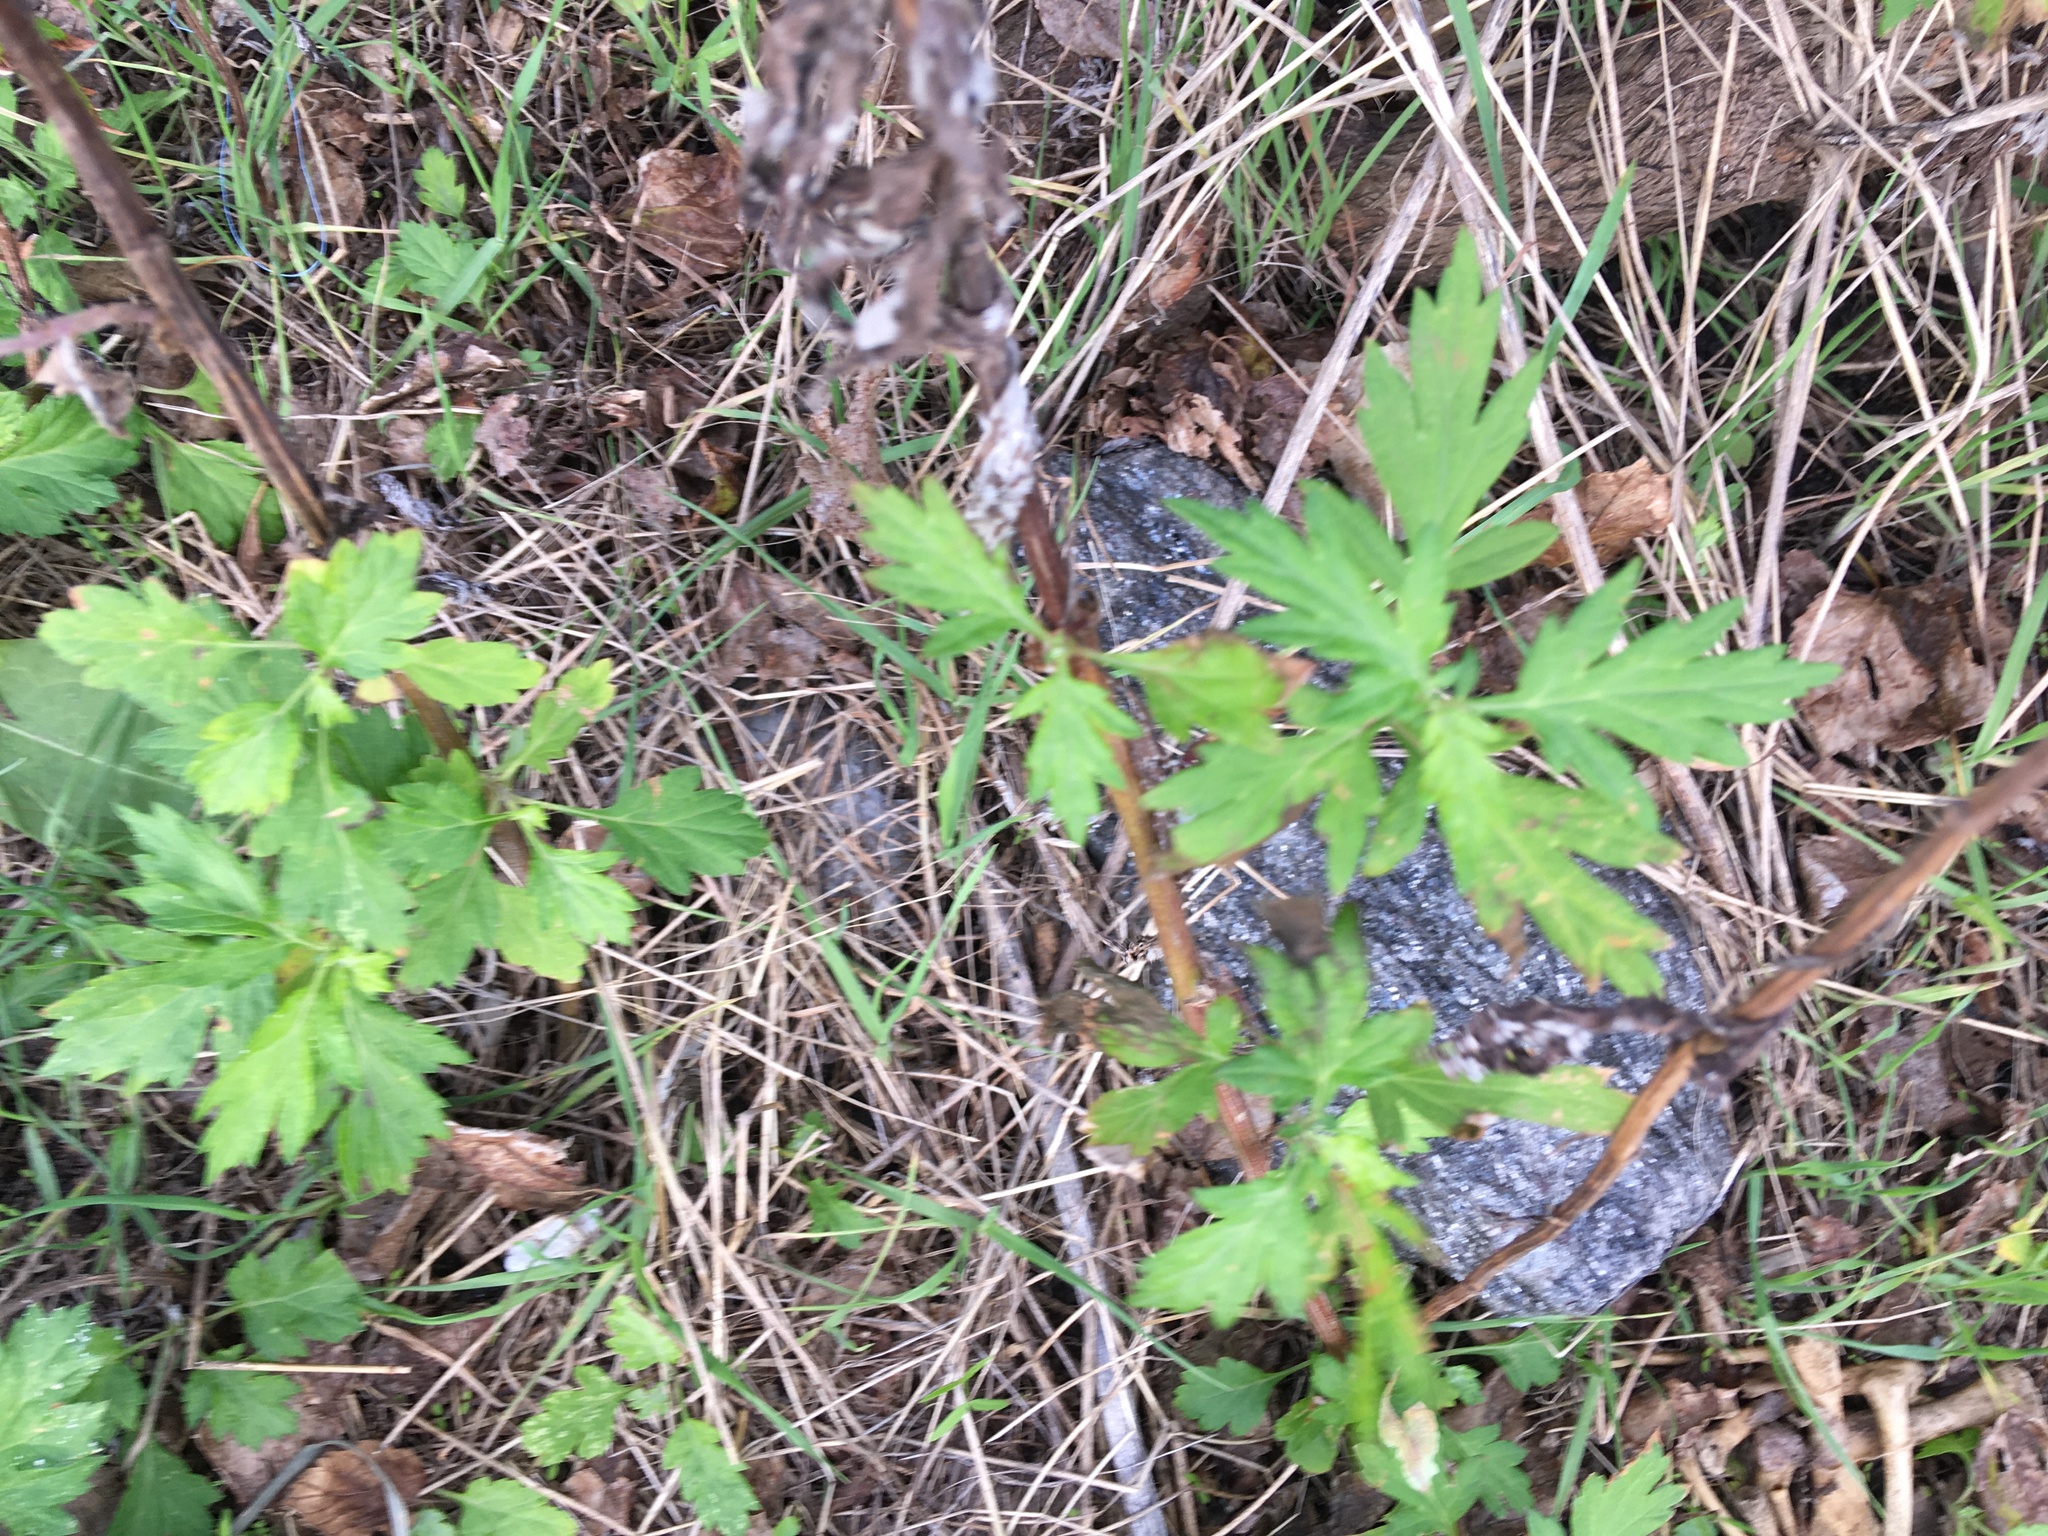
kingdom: Plantae
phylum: Tracheophyta
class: Magnoliopsida
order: Asterales
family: Asteraceae
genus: Artemisia
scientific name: Artemisia vulgaris
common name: Mugwort
